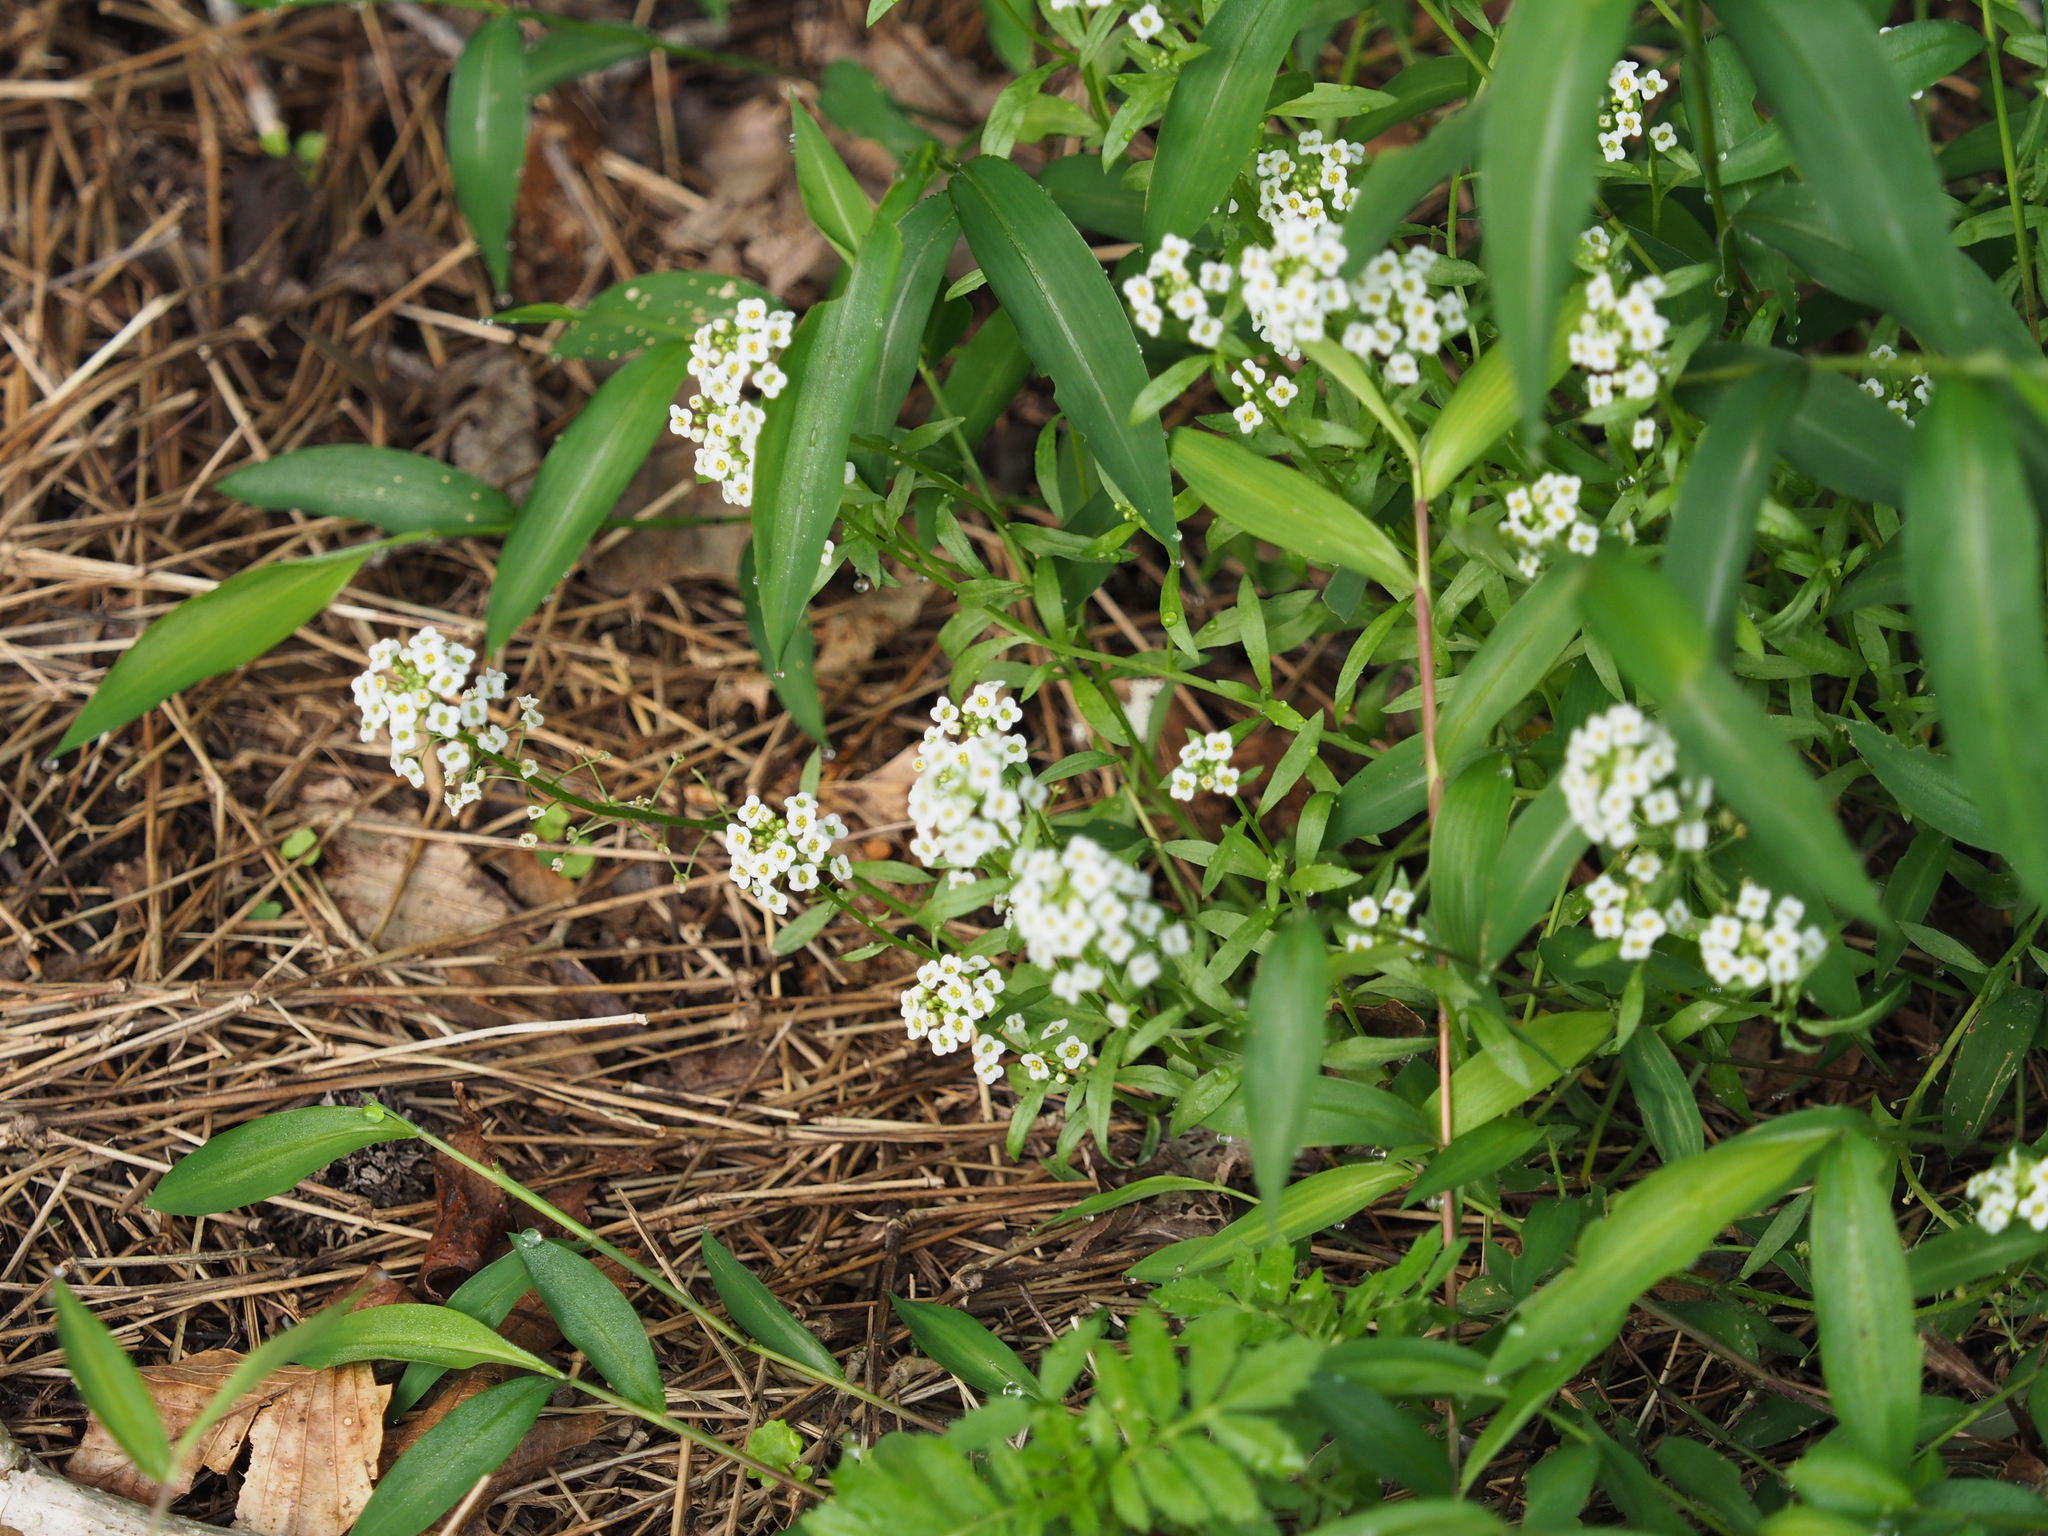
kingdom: Plantae
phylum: Tracheophyta
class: Magnoliopsida
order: Brassicales
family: Brassicaceae
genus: Lobularia
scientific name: Lobularia maritima
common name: Sweet alison
